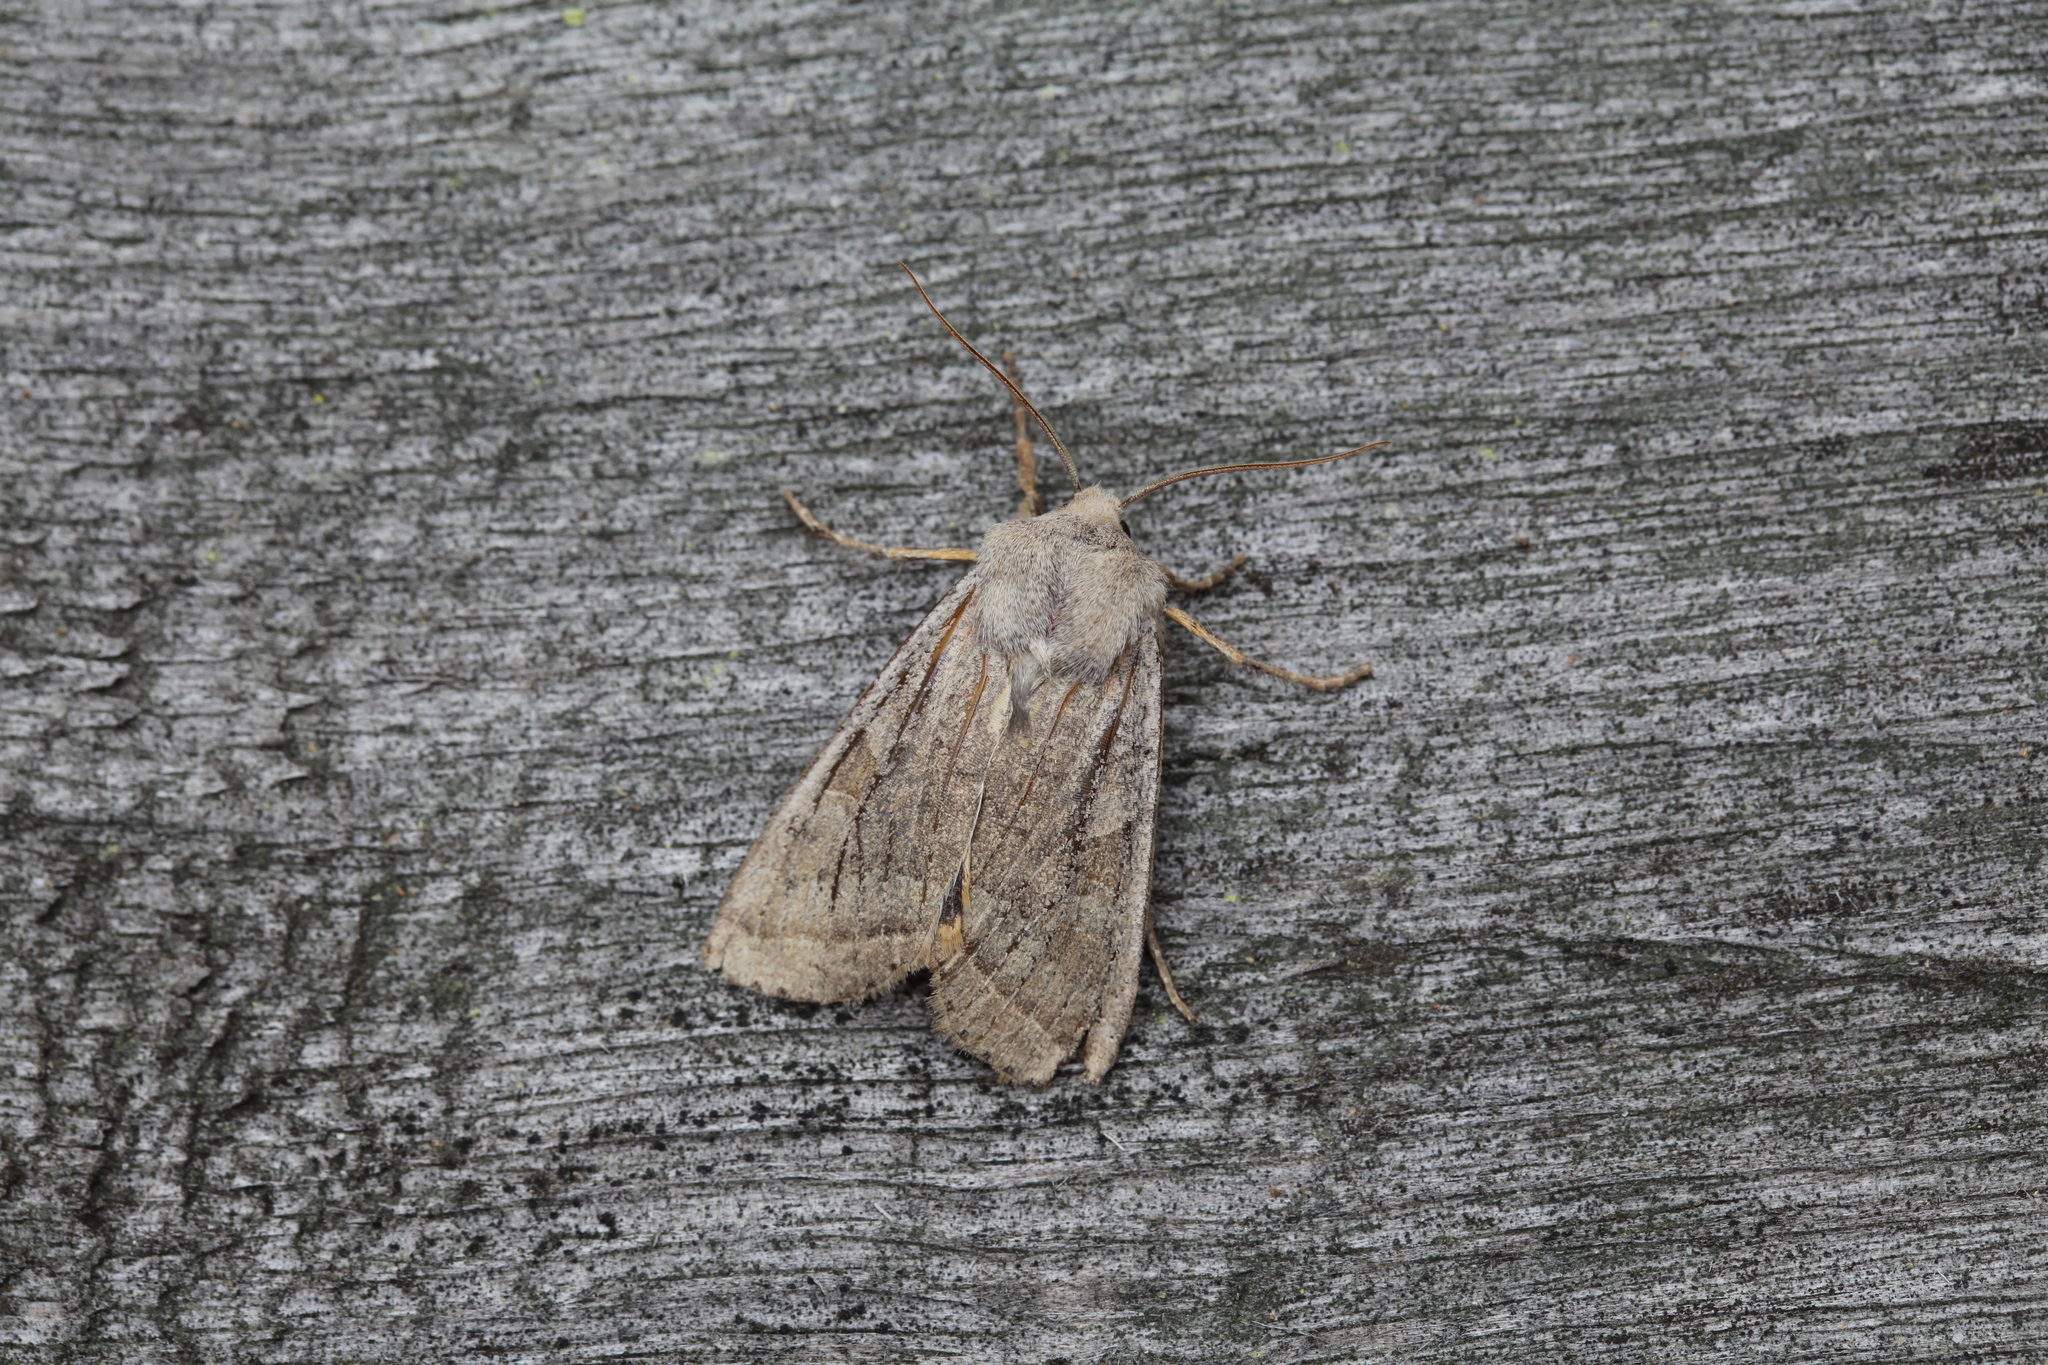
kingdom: Animalia
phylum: Arthropoda
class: Insecta
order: Lepidoptera
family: Noctuidae
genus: Orbona
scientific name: Orbona fragariae
